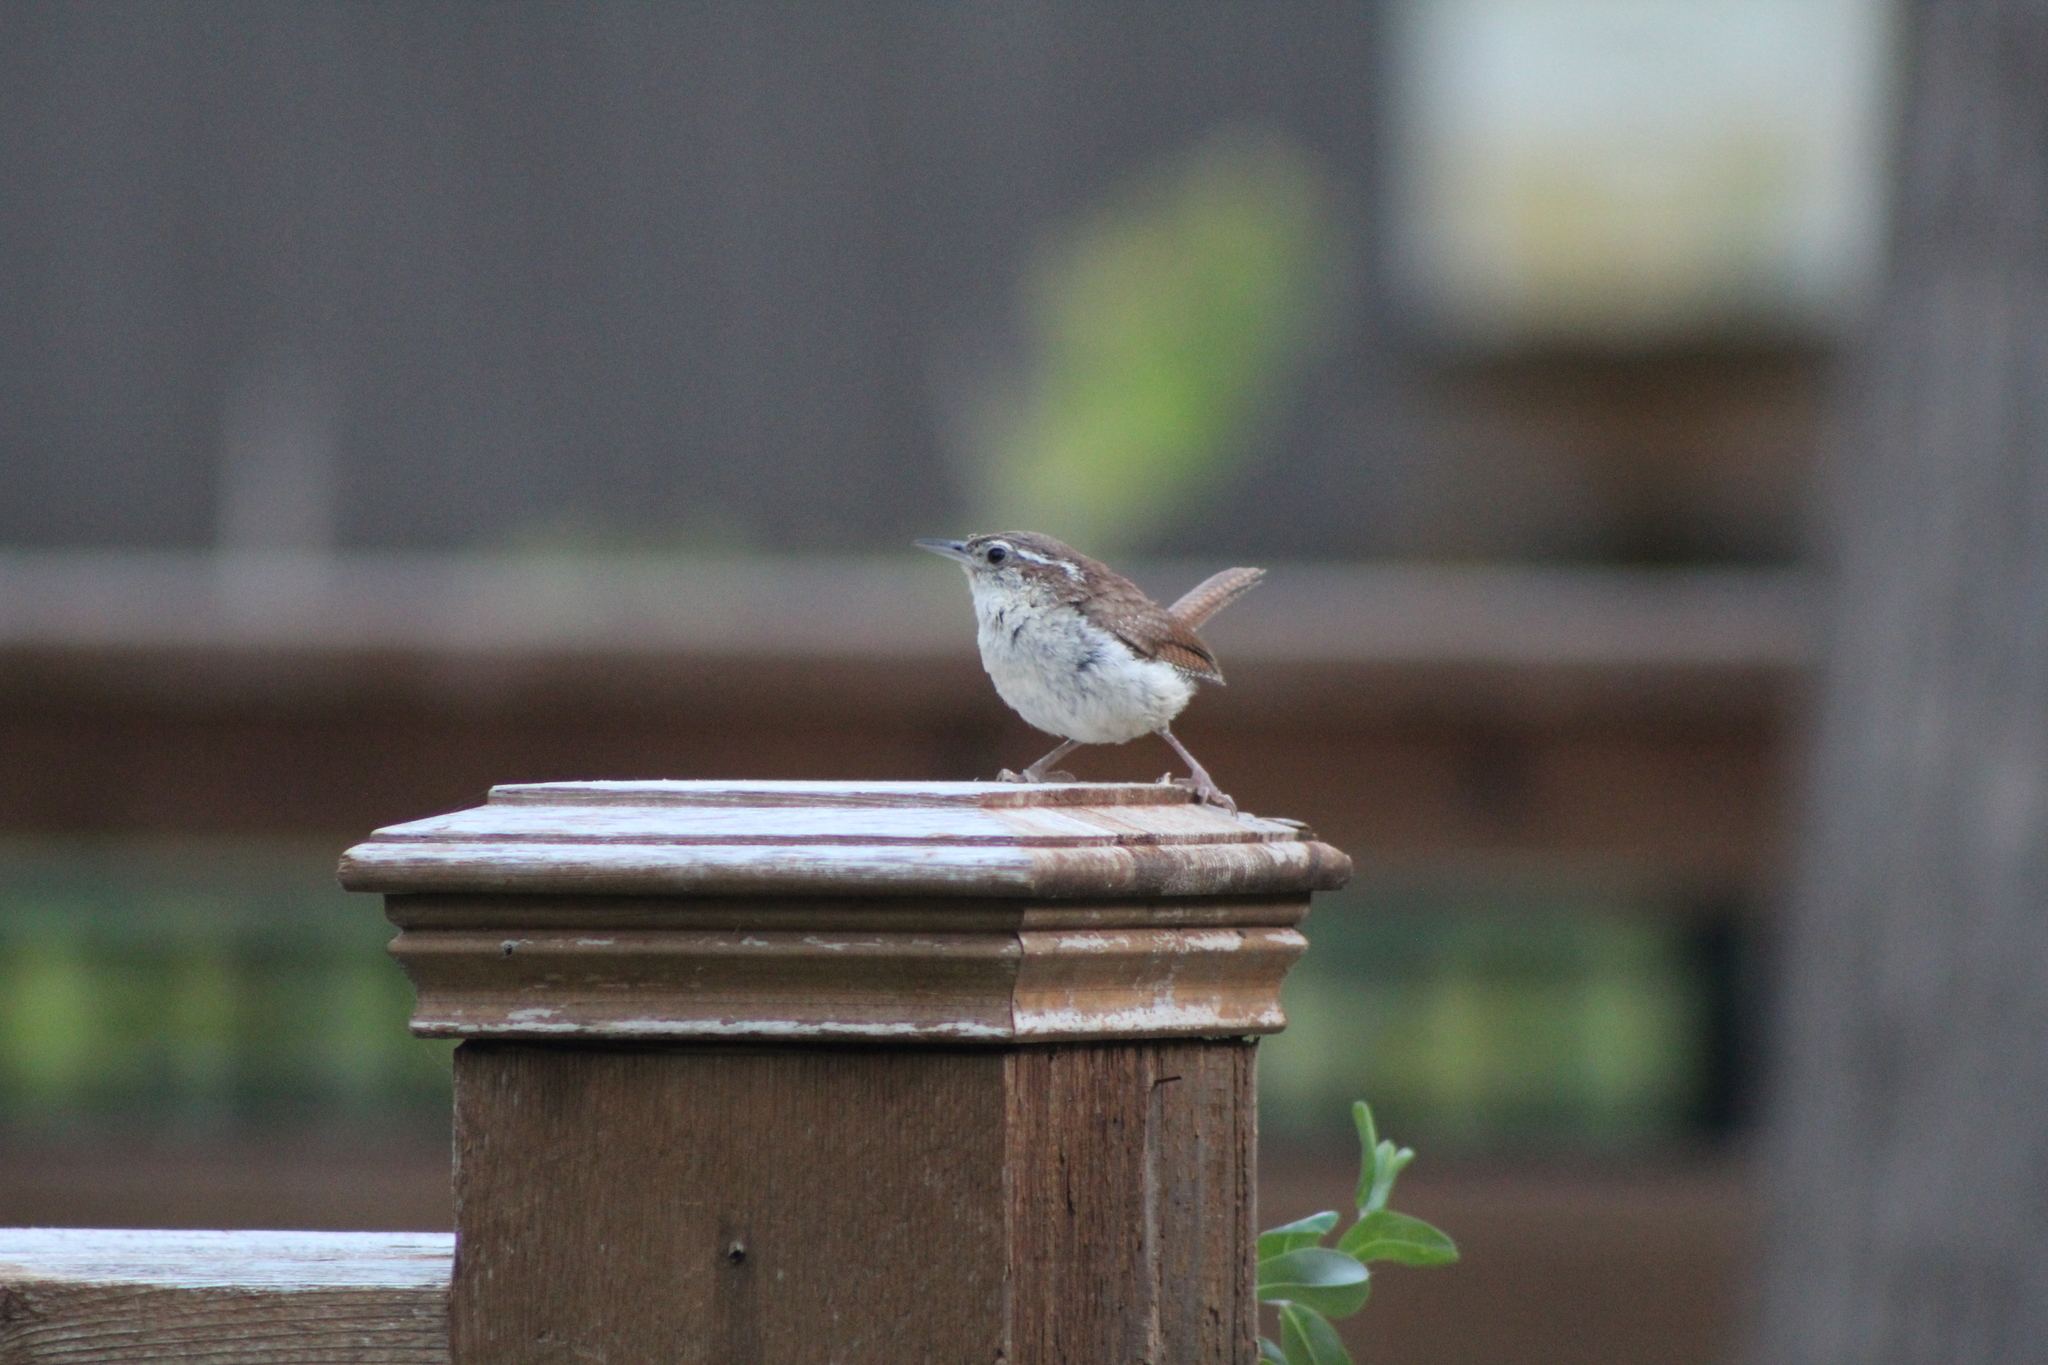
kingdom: Animalia
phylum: Chordata
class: Aves
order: Passeriformes
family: Troglodytidae
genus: Thryothorus
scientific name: Thryothorus ludovicianus
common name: Carolina wren
